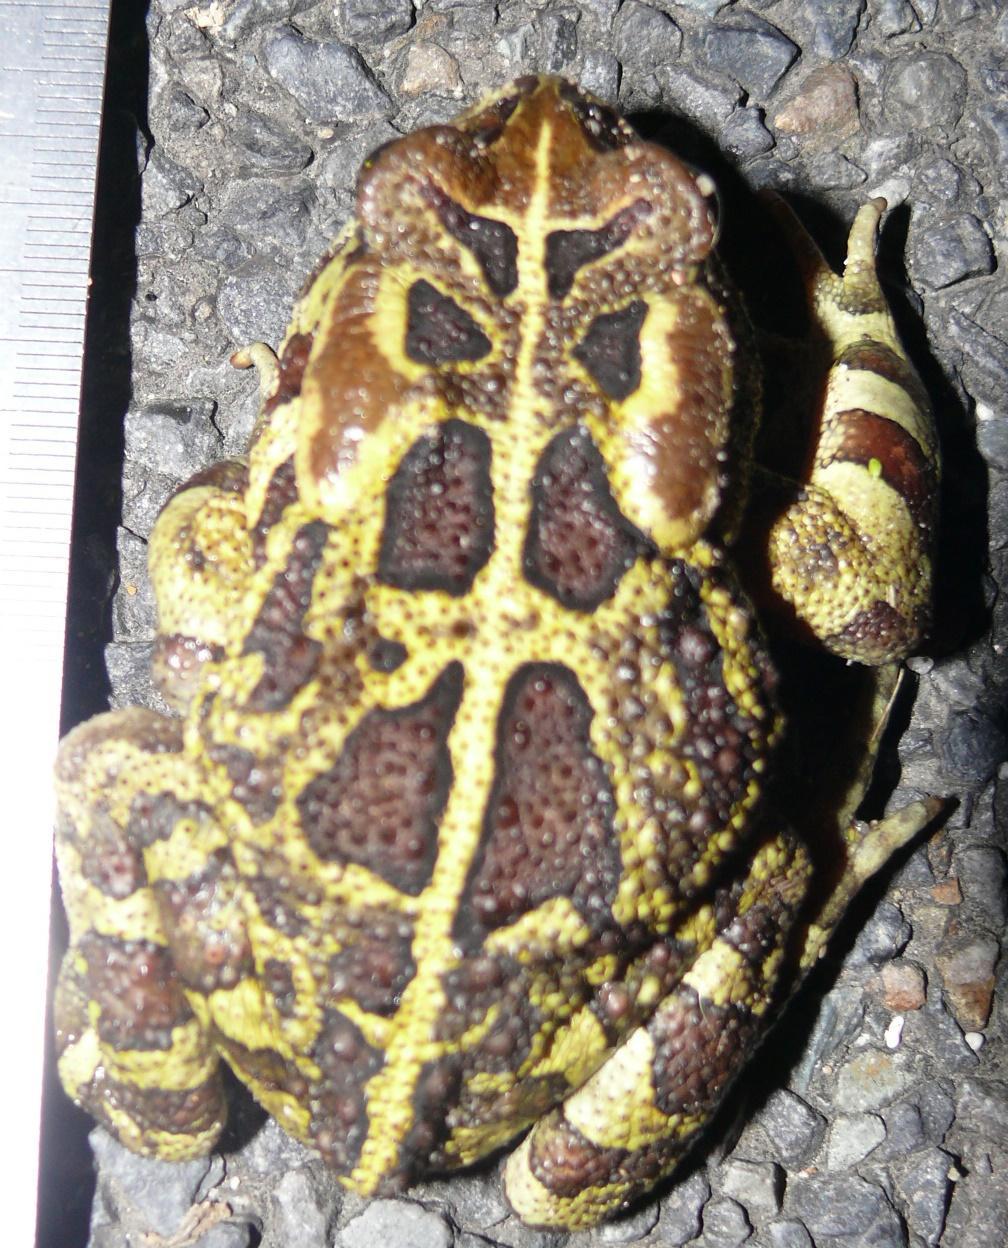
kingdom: Animalia
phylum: Chordata
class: Amphibia
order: Anura
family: Bufonidae
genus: Sclerophrys
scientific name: Sclerophrys pantherina
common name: Panther toad
